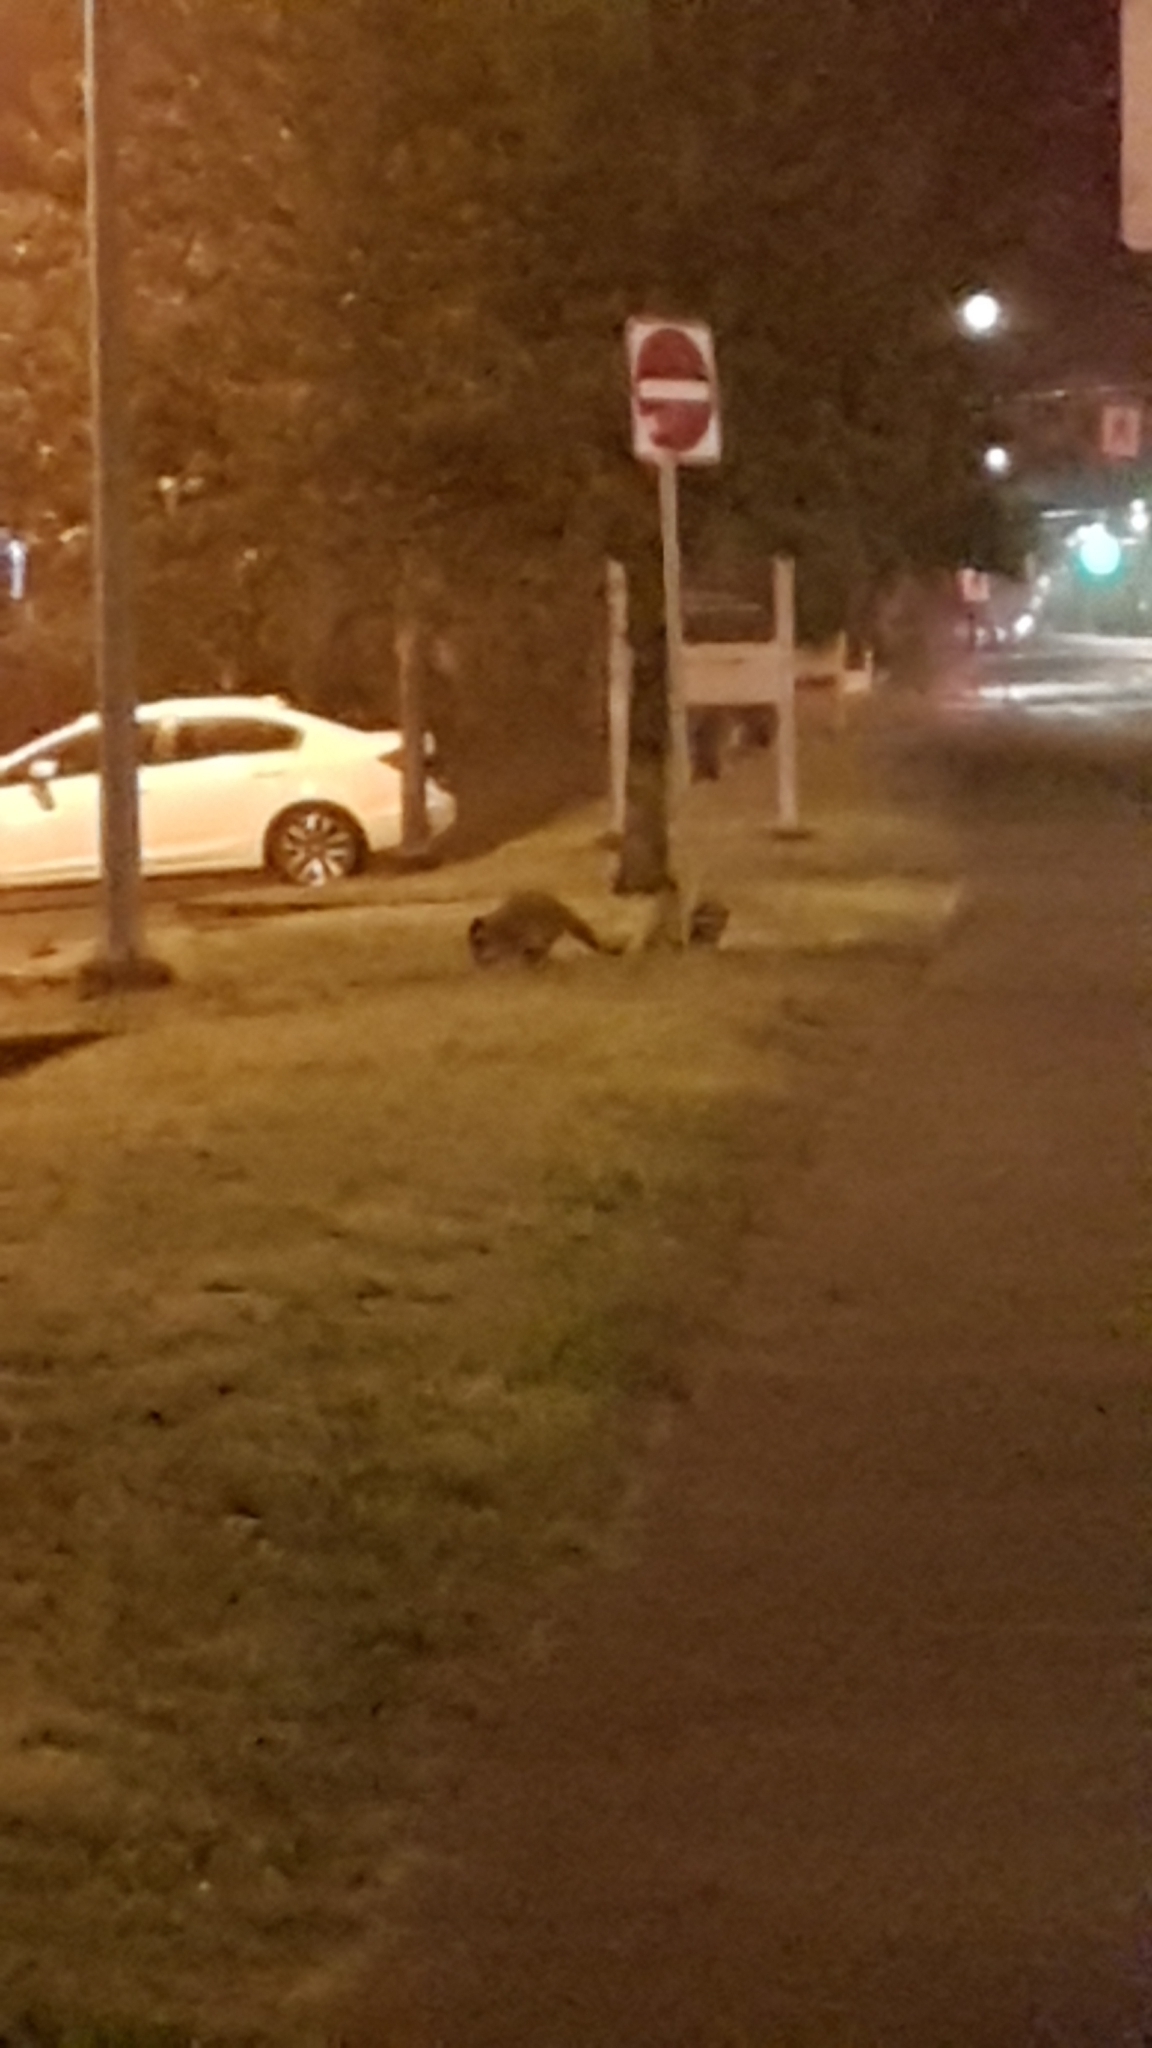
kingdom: Animalia
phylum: Chordata
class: Mammalia
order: Carnivora
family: Procyonidae
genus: Procyon
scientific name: Procyon lotor
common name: Raccoon
